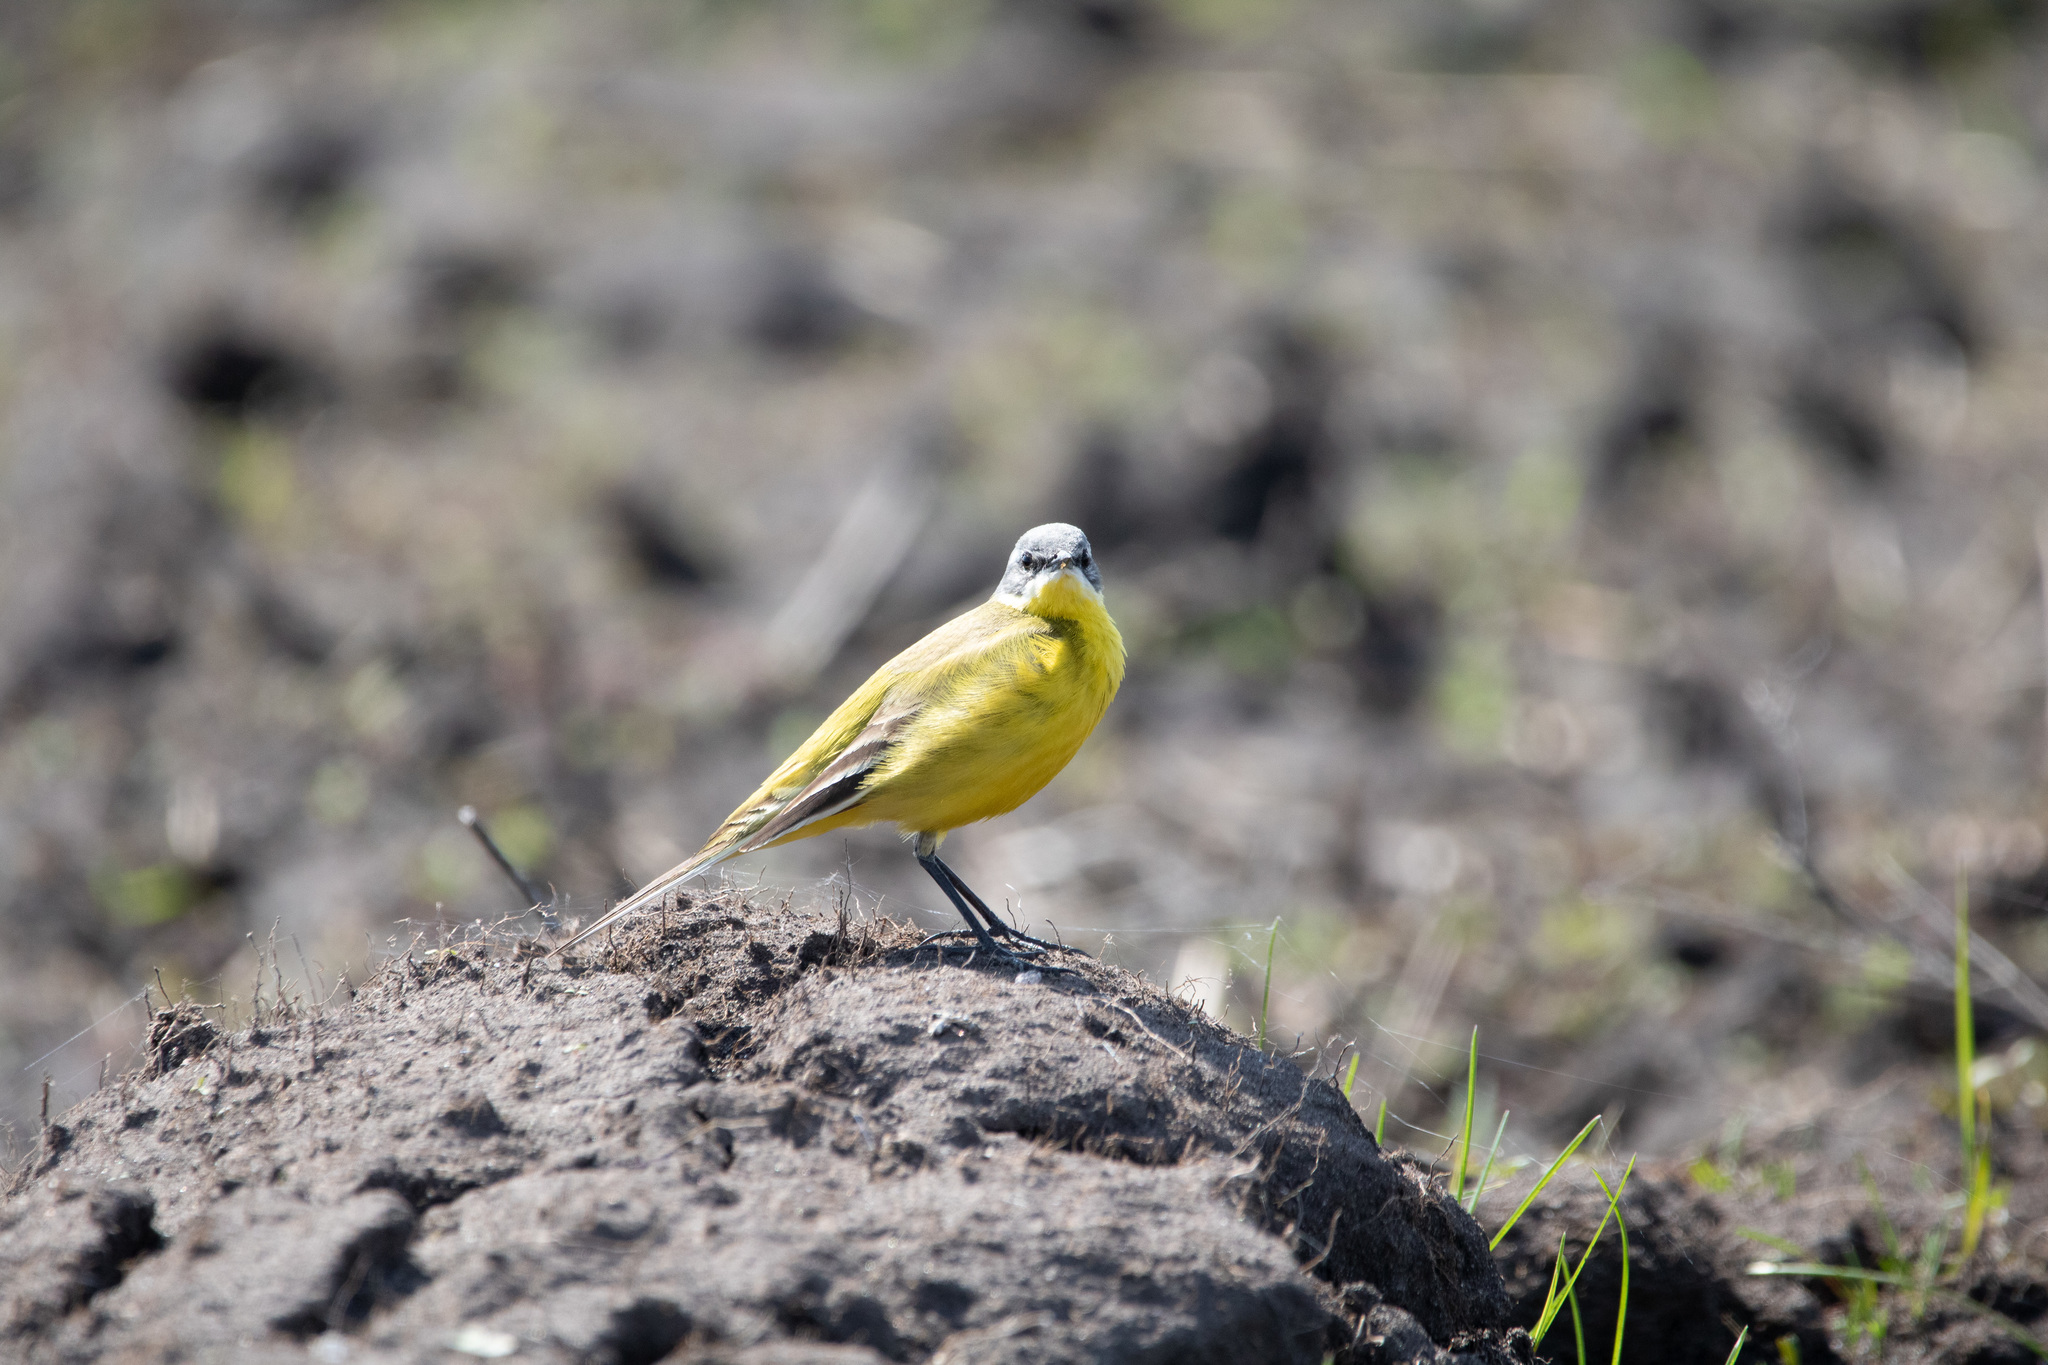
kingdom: Animalia
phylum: Chordata
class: Aves
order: Passeriformes
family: Motacillidae
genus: Motacilla
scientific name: Motacilla flava
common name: Western yellow wagtail
